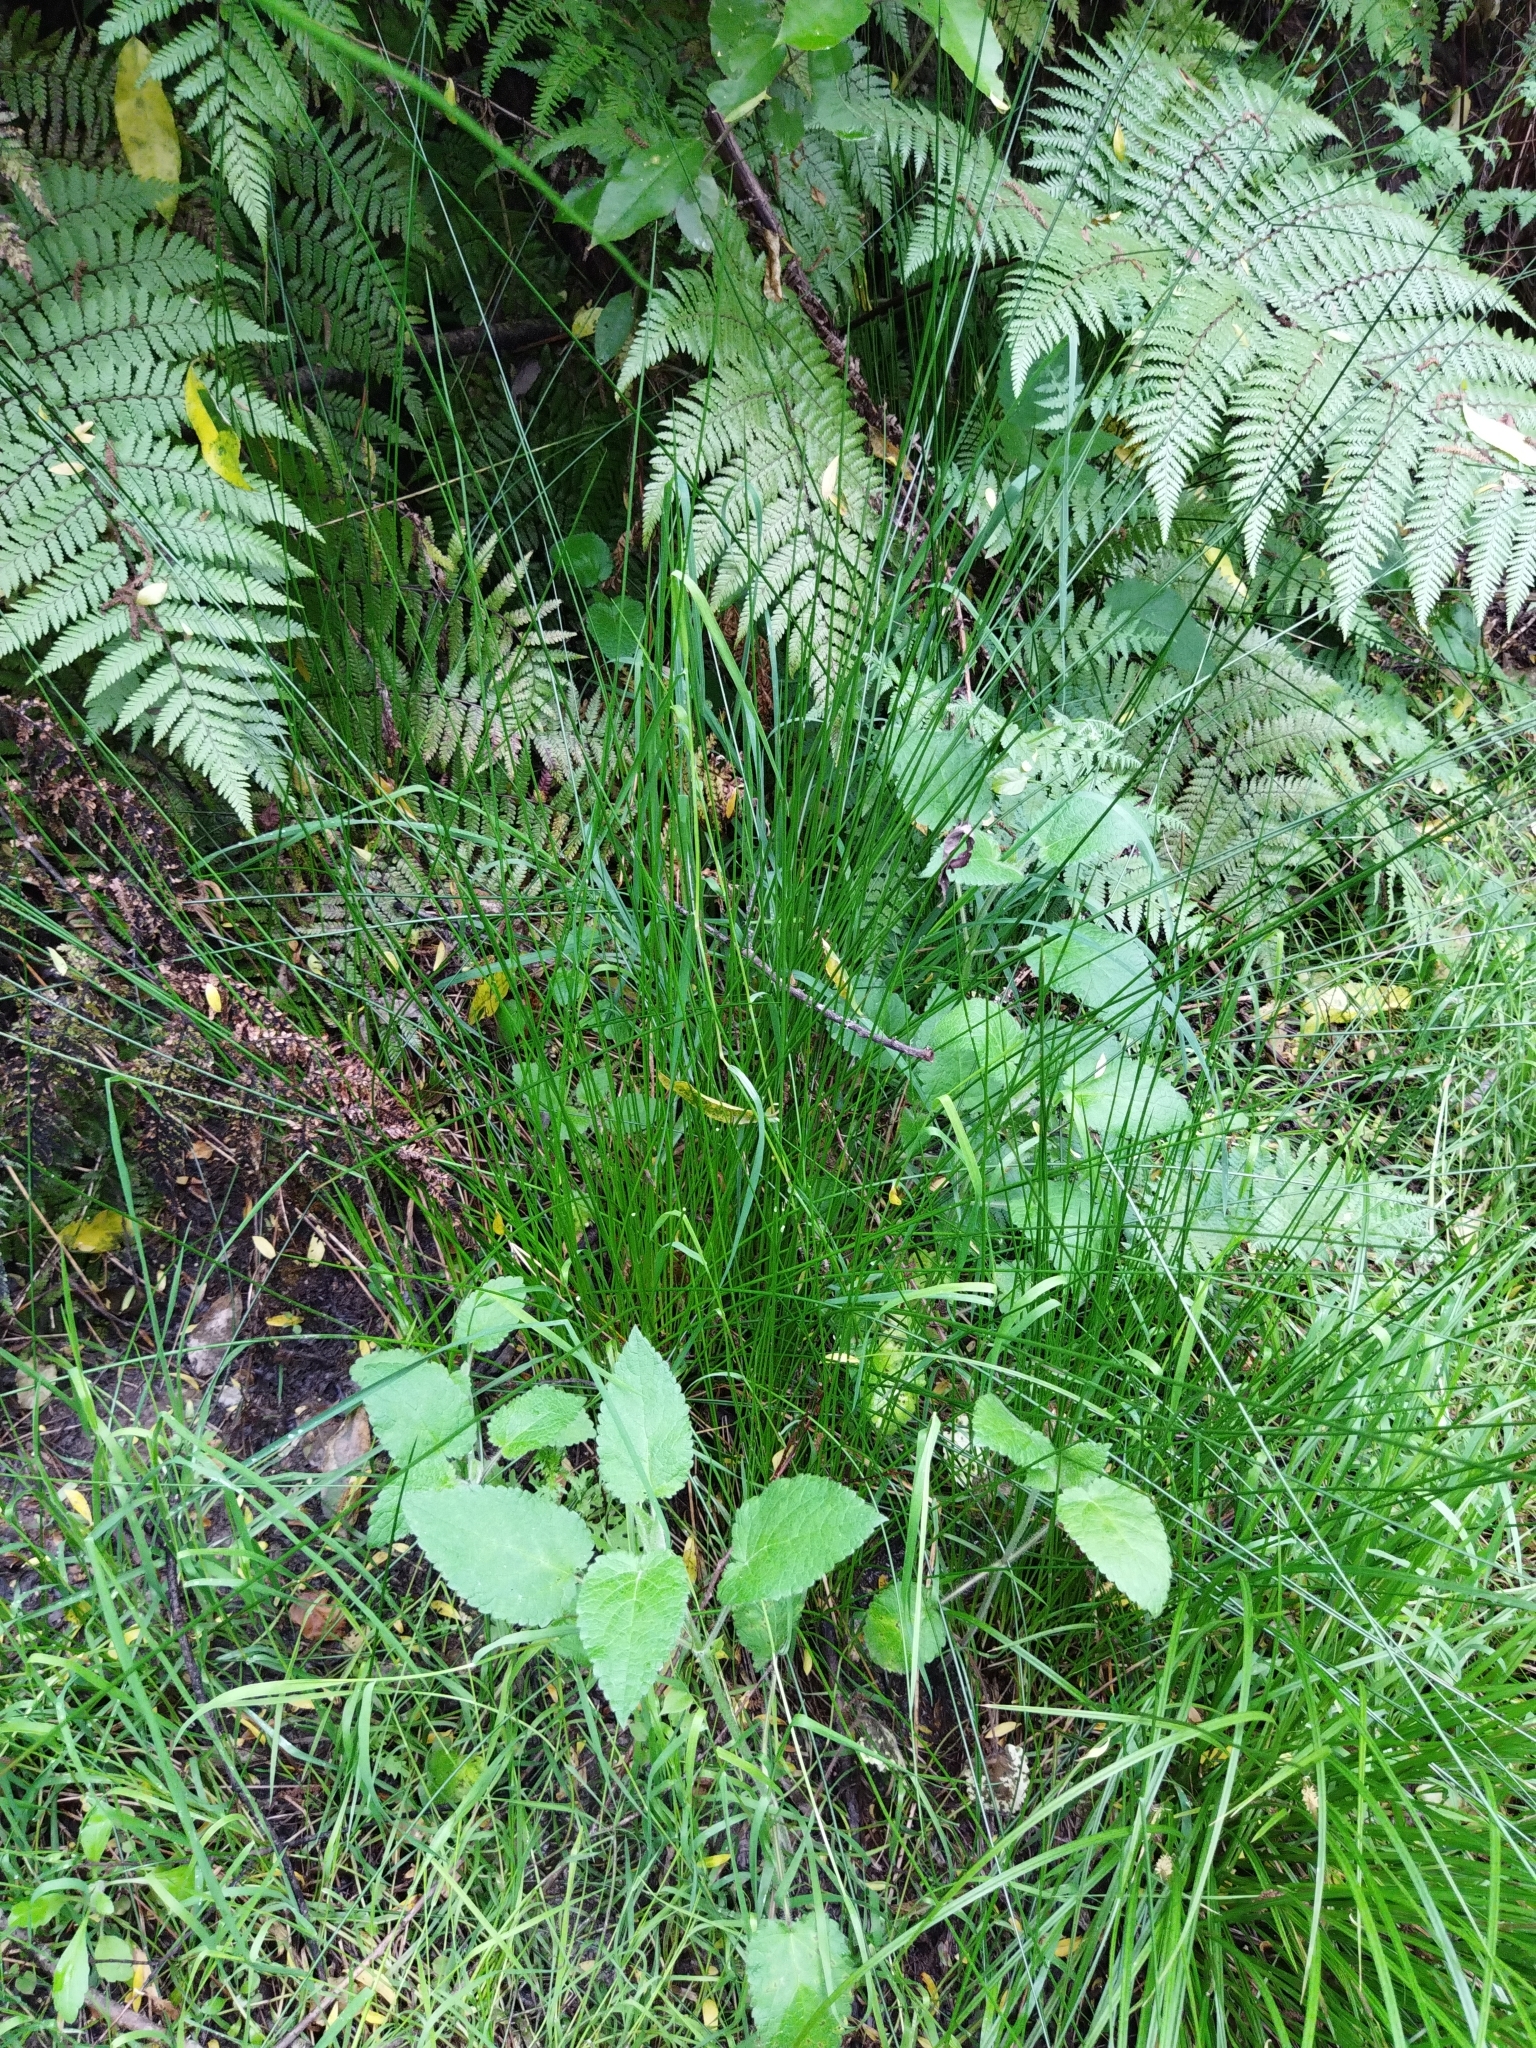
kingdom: Plantae
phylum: Tracheophyta
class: Liliopsida
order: Poales
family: Juncaceae
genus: Juncus
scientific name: Juncus effusus
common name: Soft rush
